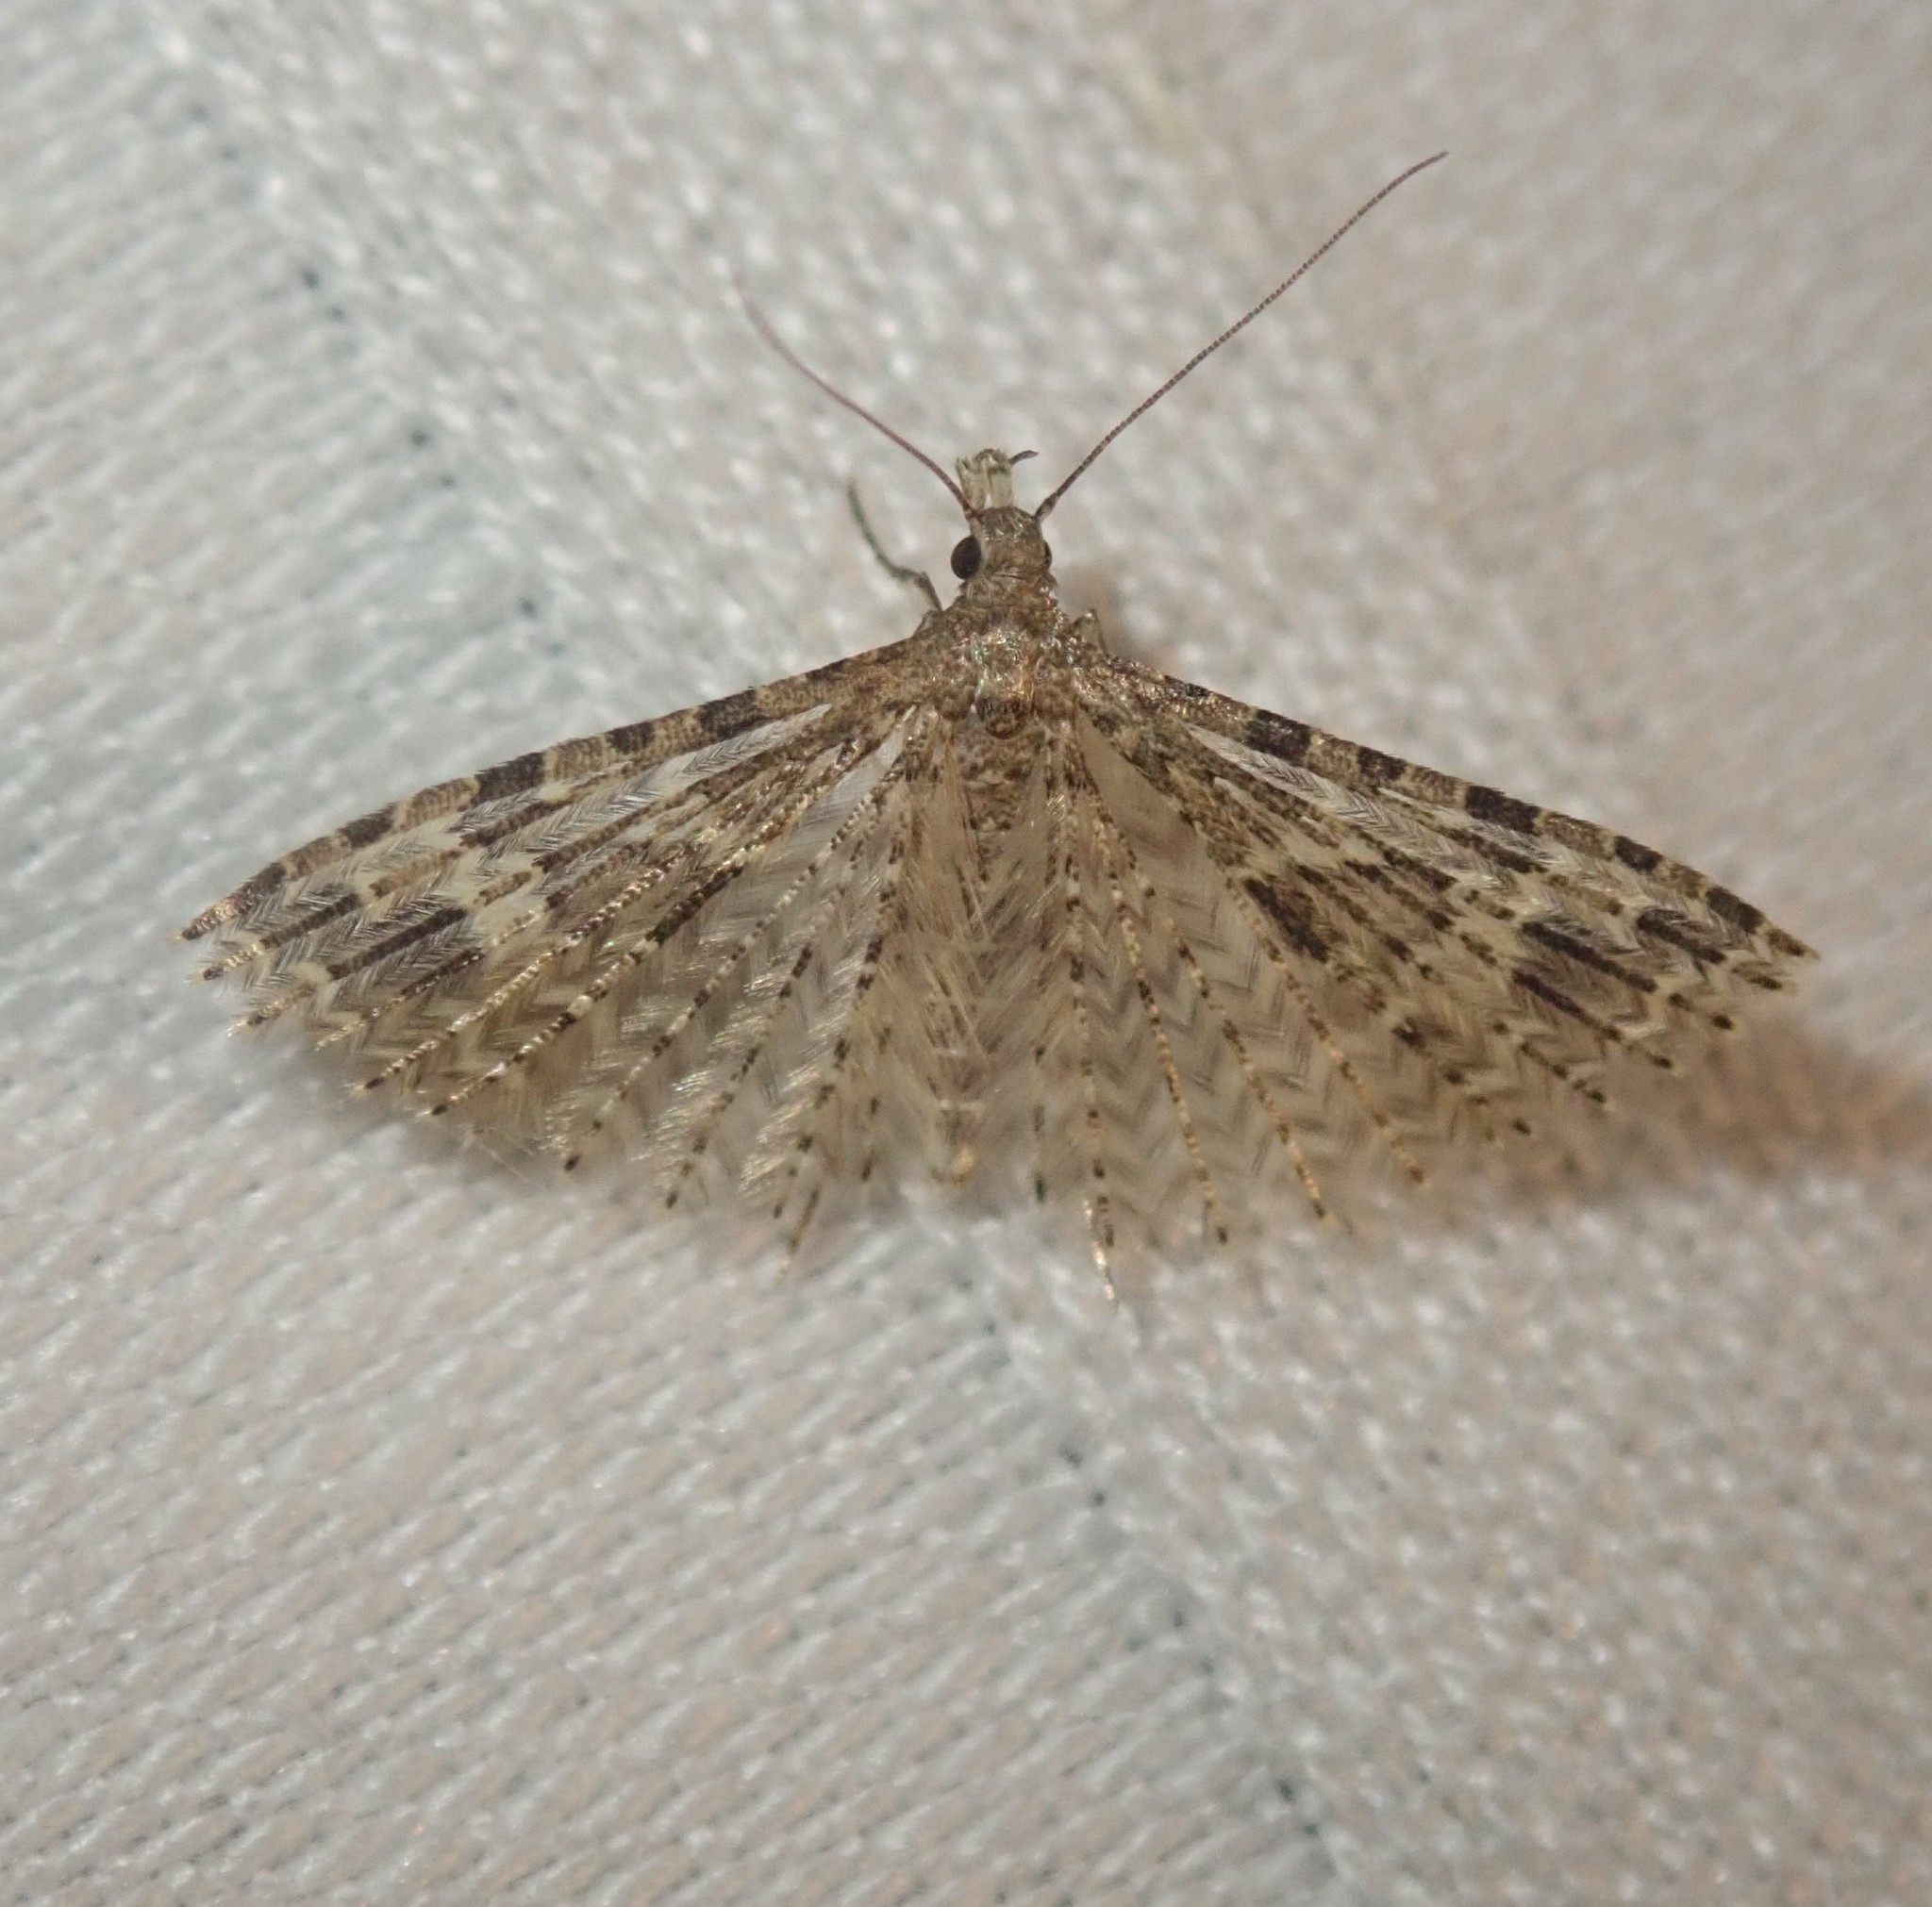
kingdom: Animalia
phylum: Arthropoda
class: Insecta
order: Lepidoptera
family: Alucitidae
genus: Alucita
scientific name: Alucita hexadactyla
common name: Twenty-plume moth
